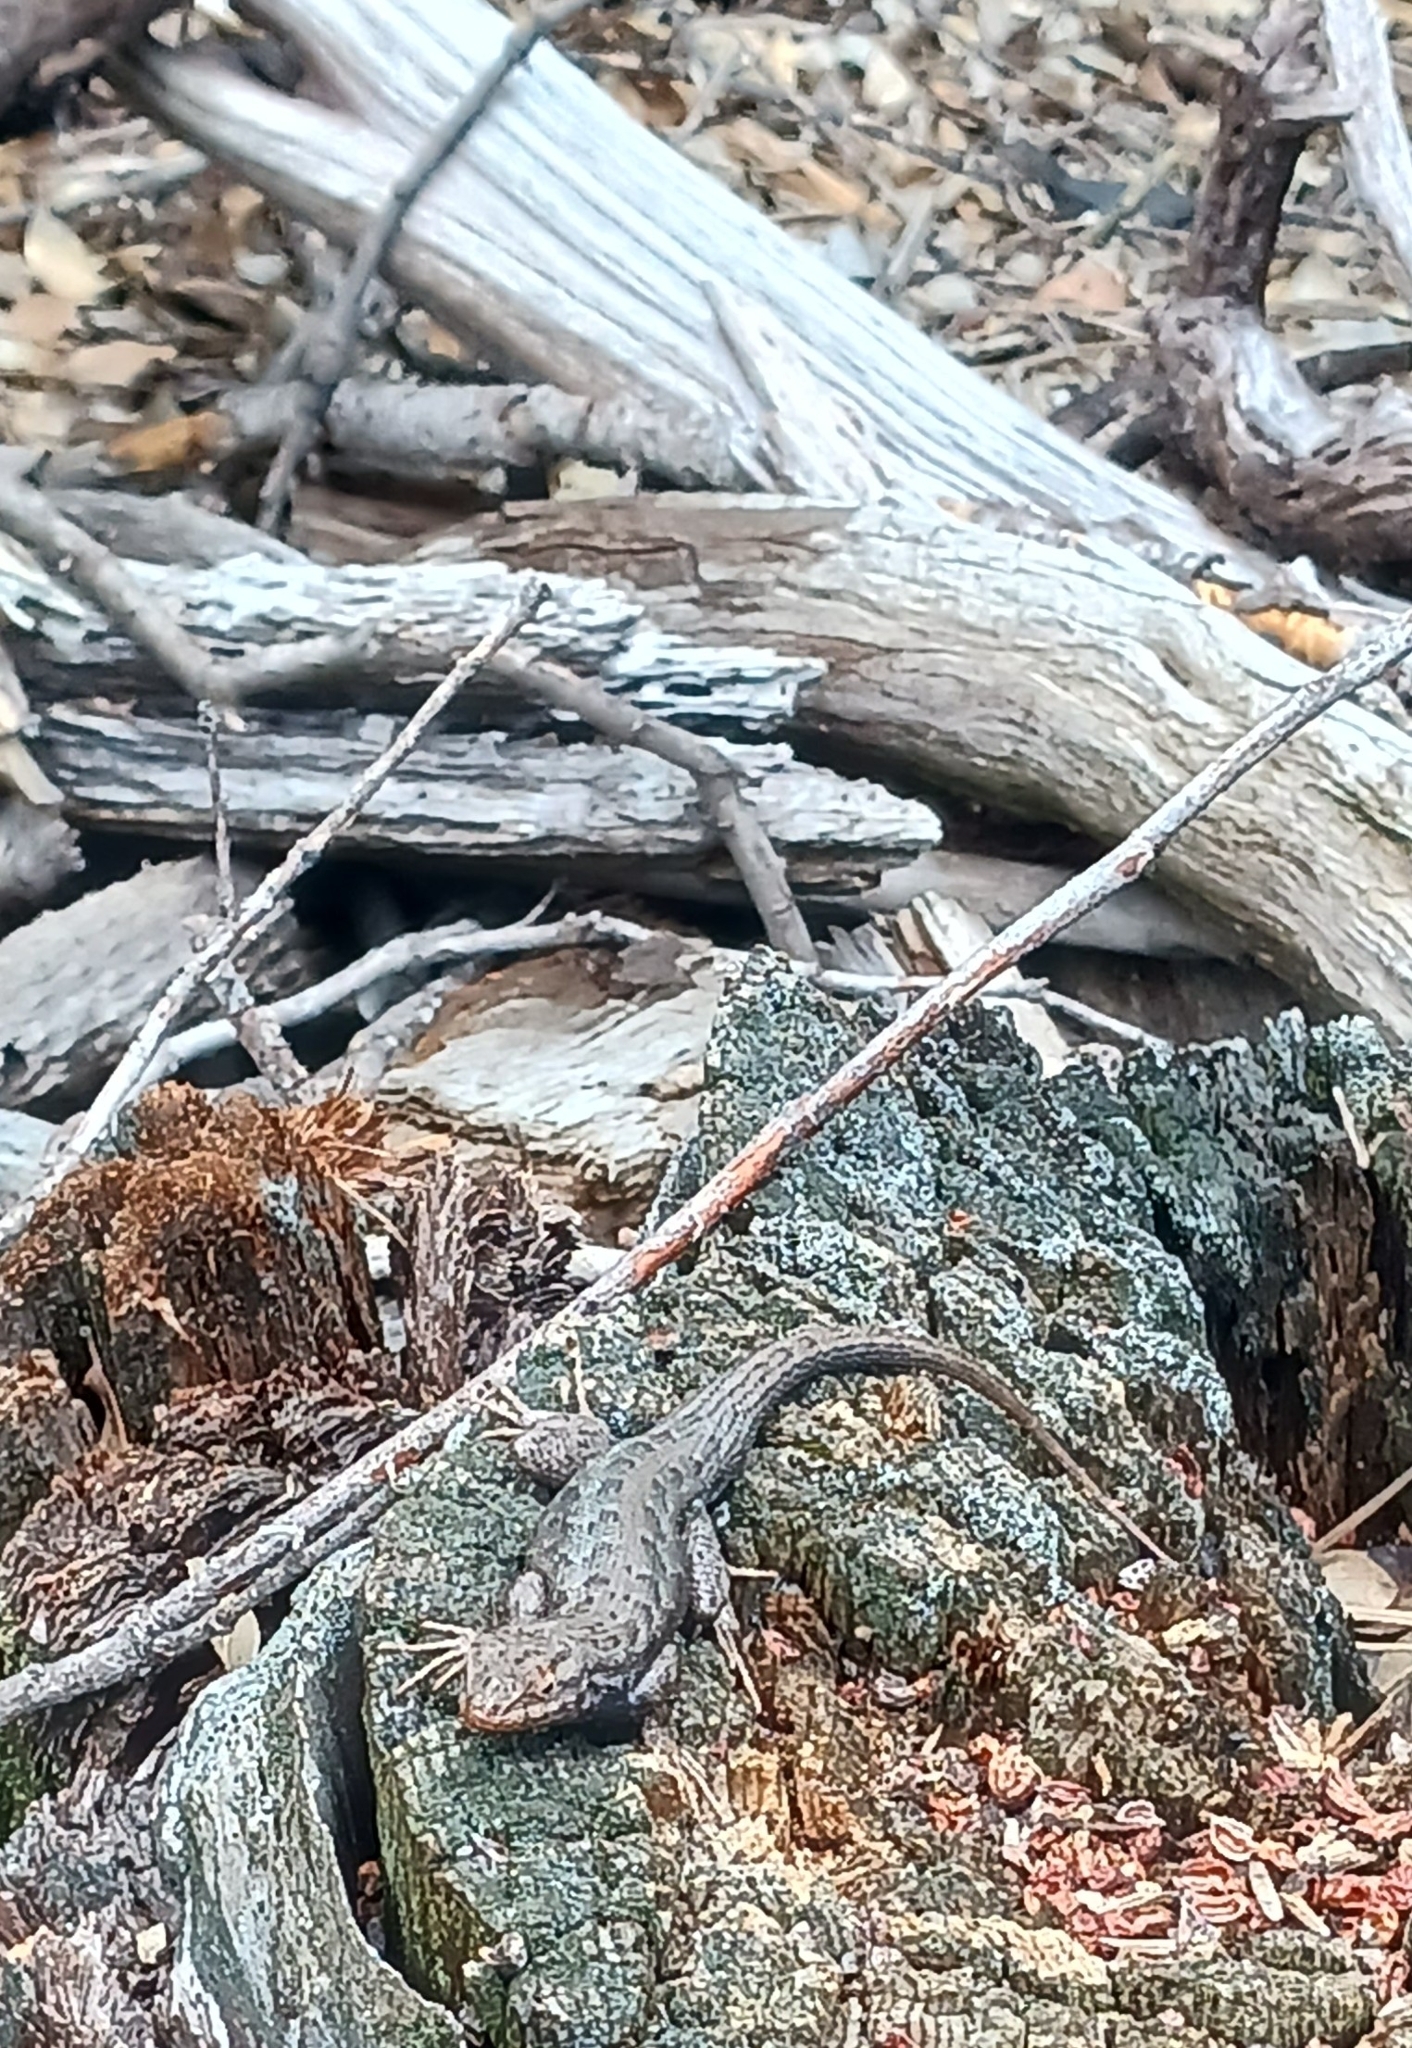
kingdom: Animalia
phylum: Chordata
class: Squamata
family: Phrynosomatidae
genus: Sceloporus
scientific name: Sceloporus graciosus
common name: Sagebrush lizard
